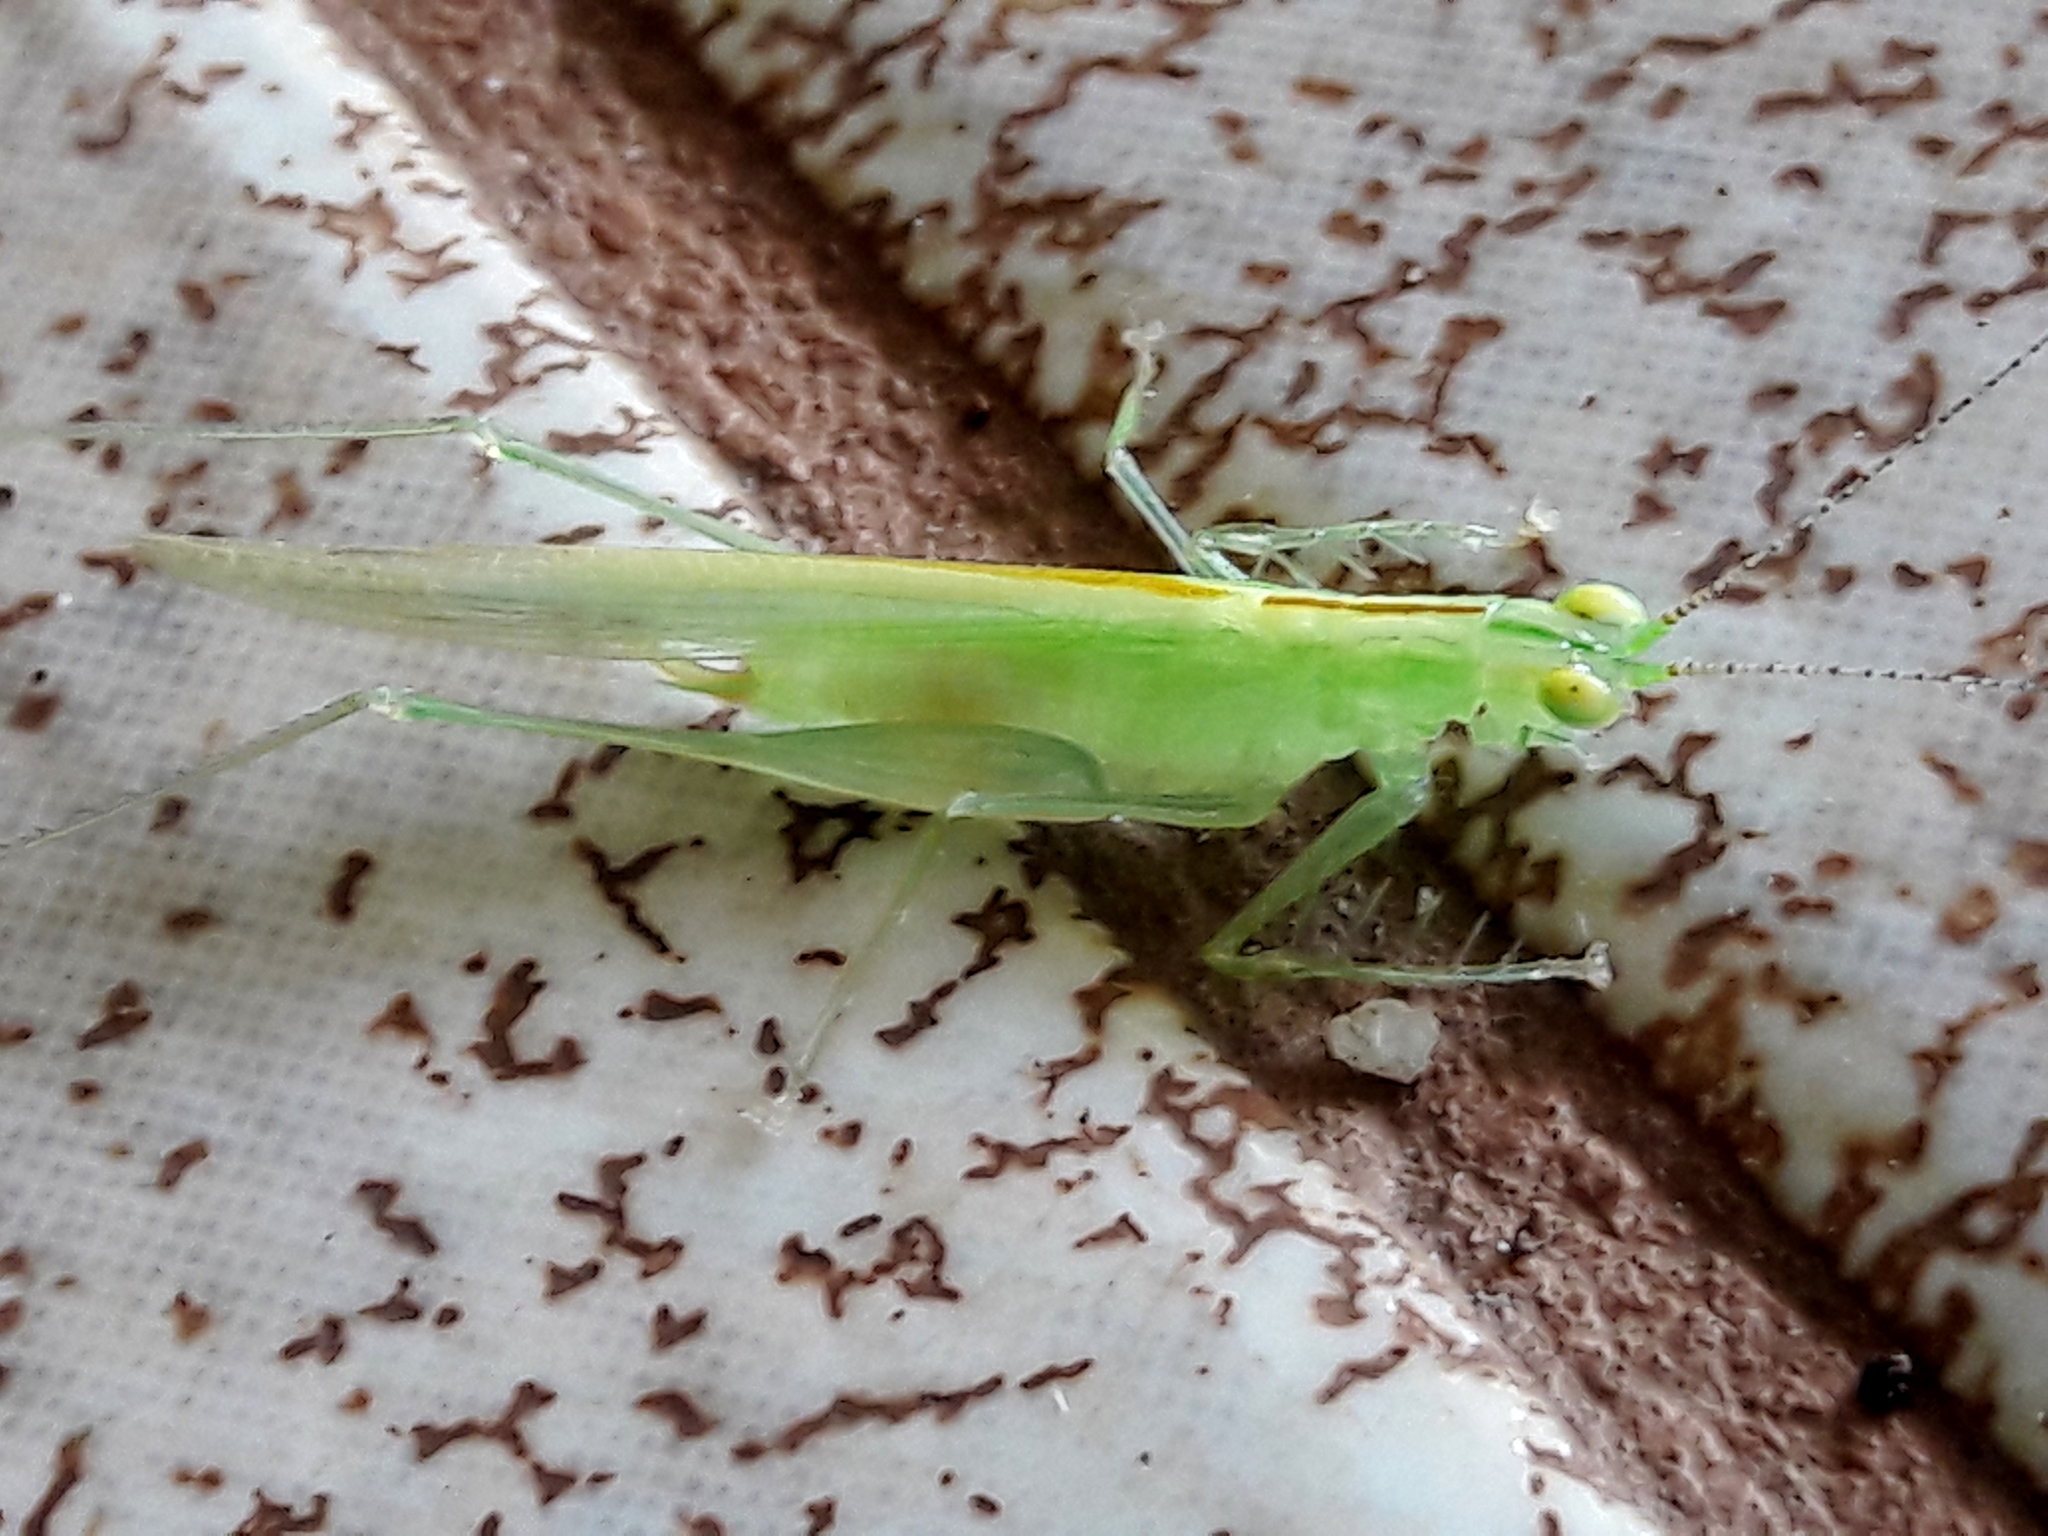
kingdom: Animalia
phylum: Arthropoda
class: Insecta
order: Orthoptera
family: Tettigoniidae
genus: Phlugis
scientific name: Phlugis ocraceovittata
